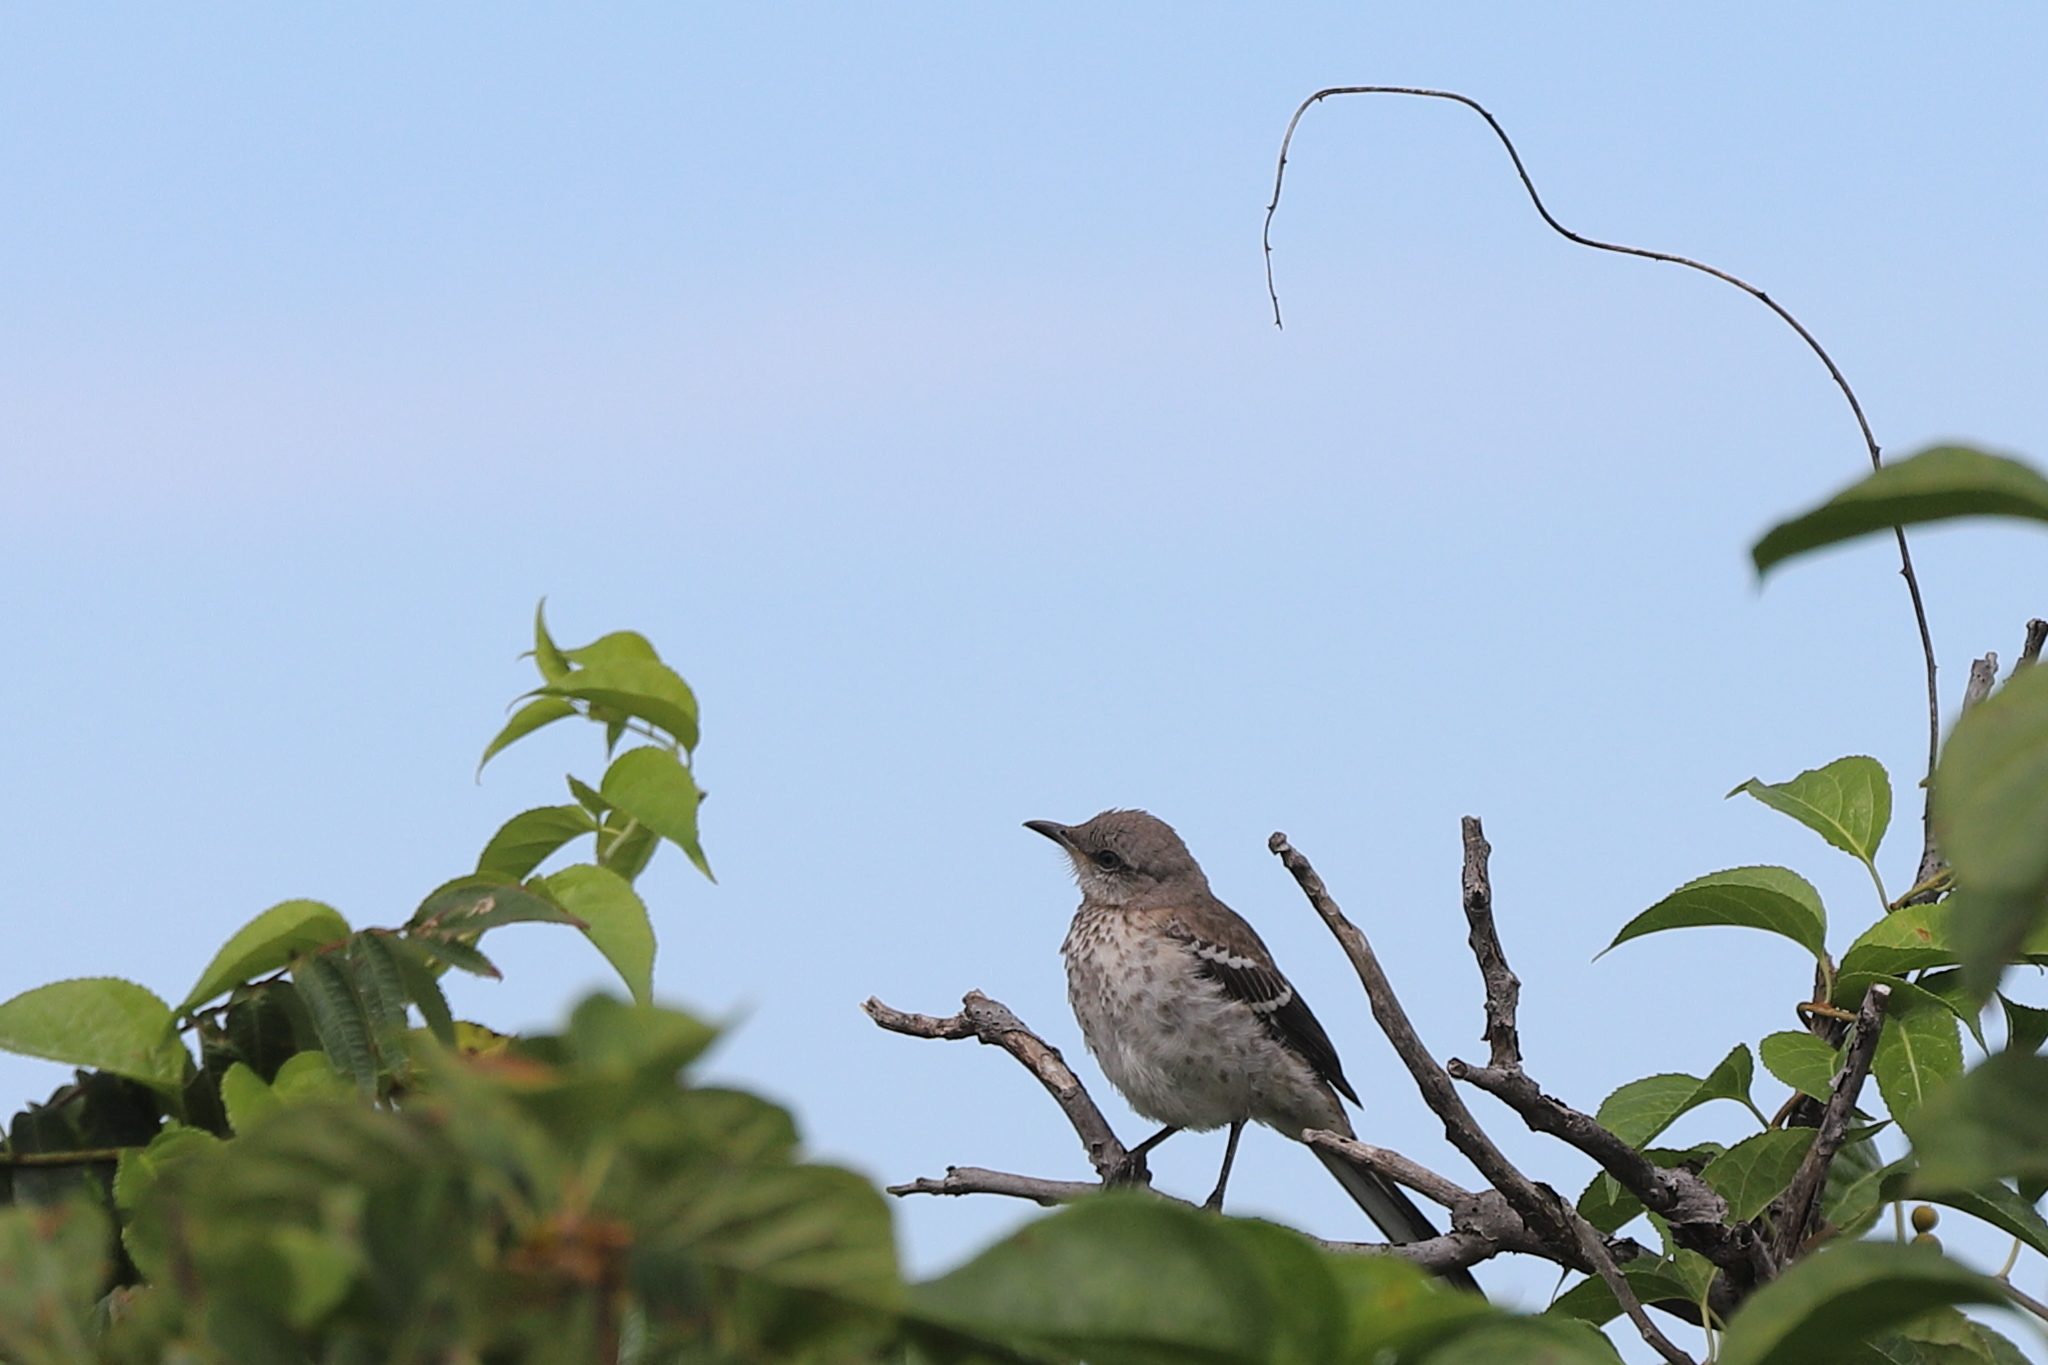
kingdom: Animalia
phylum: Chordata
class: Aves
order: Passeriformes
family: Mimidae
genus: Mimus
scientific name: Mimus polyglottos
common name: Northern mockingbird
